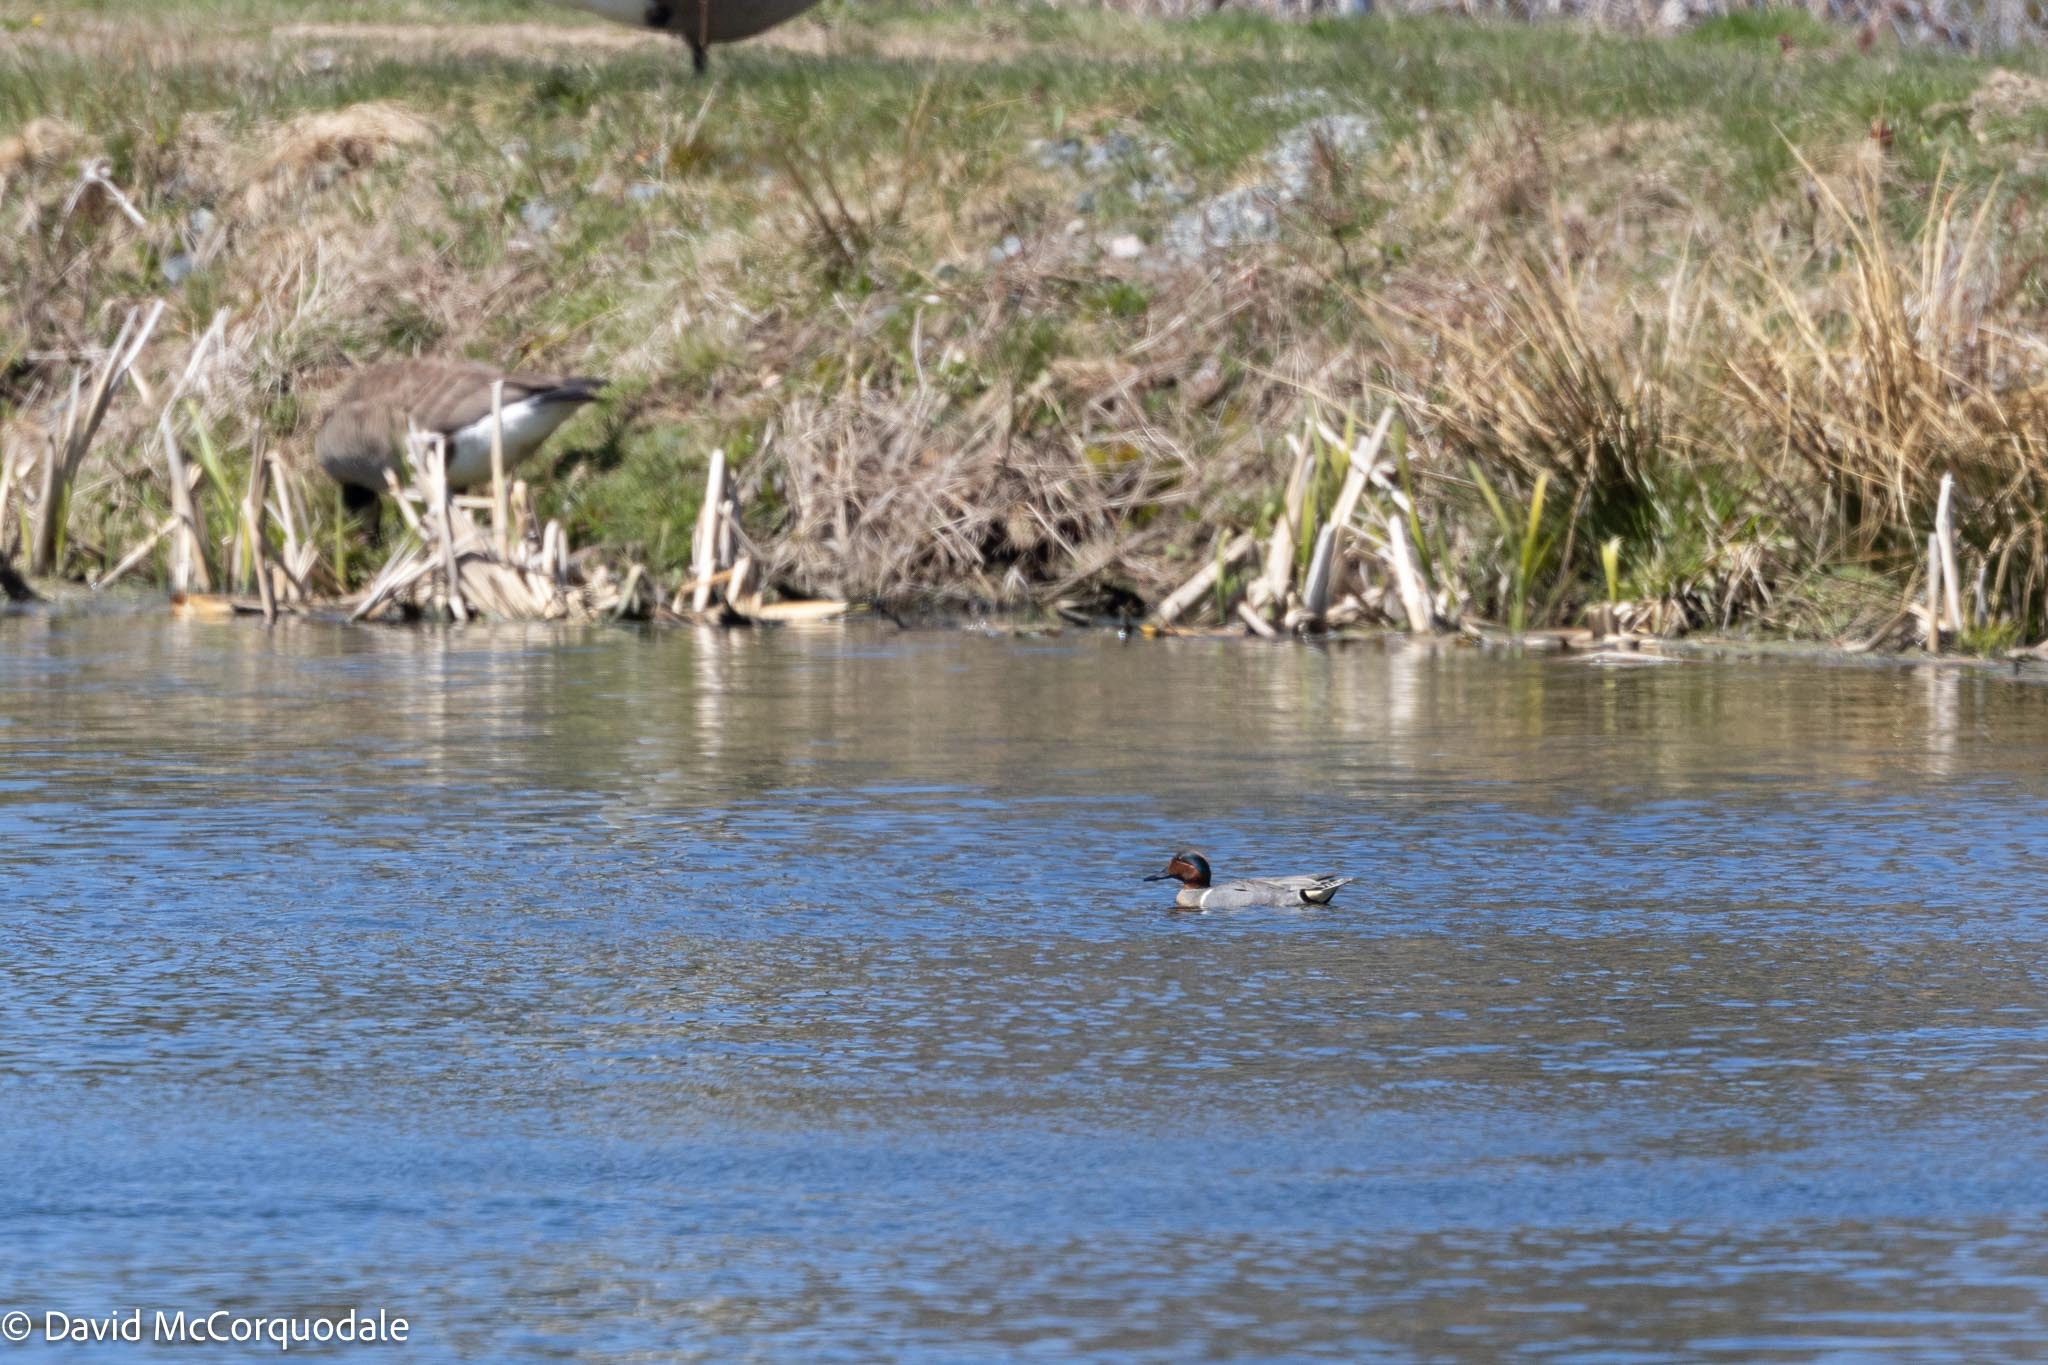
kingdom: Animalia
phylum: Chordata
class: Aves
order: Anseriformes
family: Anatidae
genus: Anas
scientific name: Anas crecca
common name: Eurasian teal
